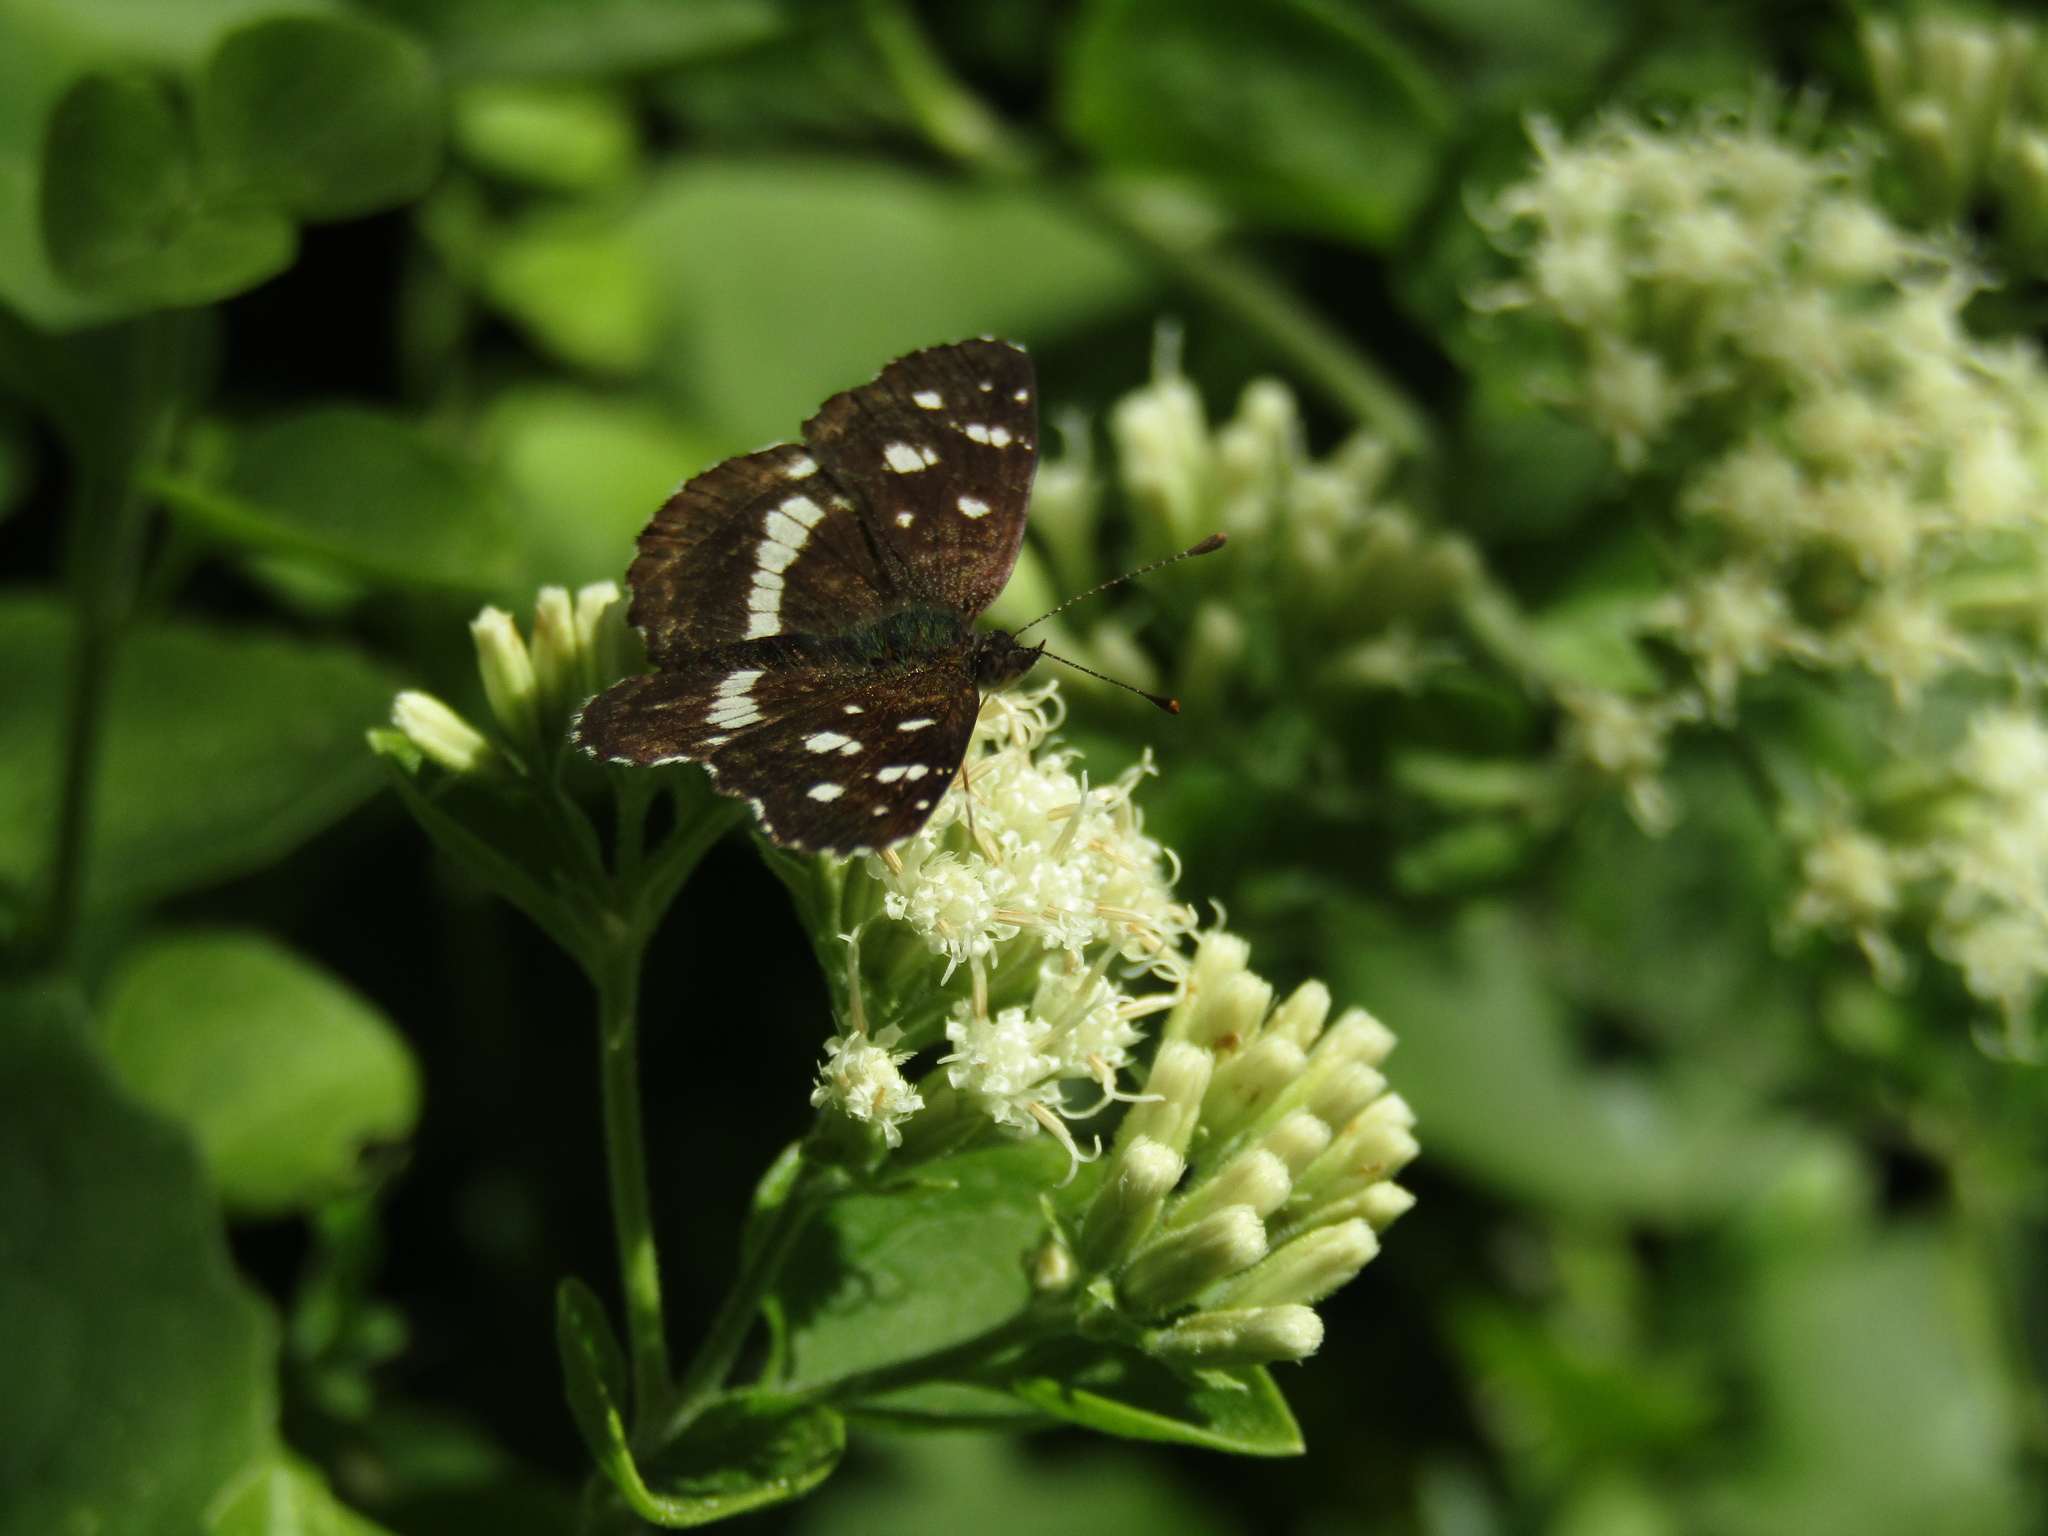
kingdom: Animalia
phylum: Arthropoda
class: Insecta
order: Lepidoptera
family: Nymphalidae
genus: Ortilia
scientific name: Ortilia ithra
